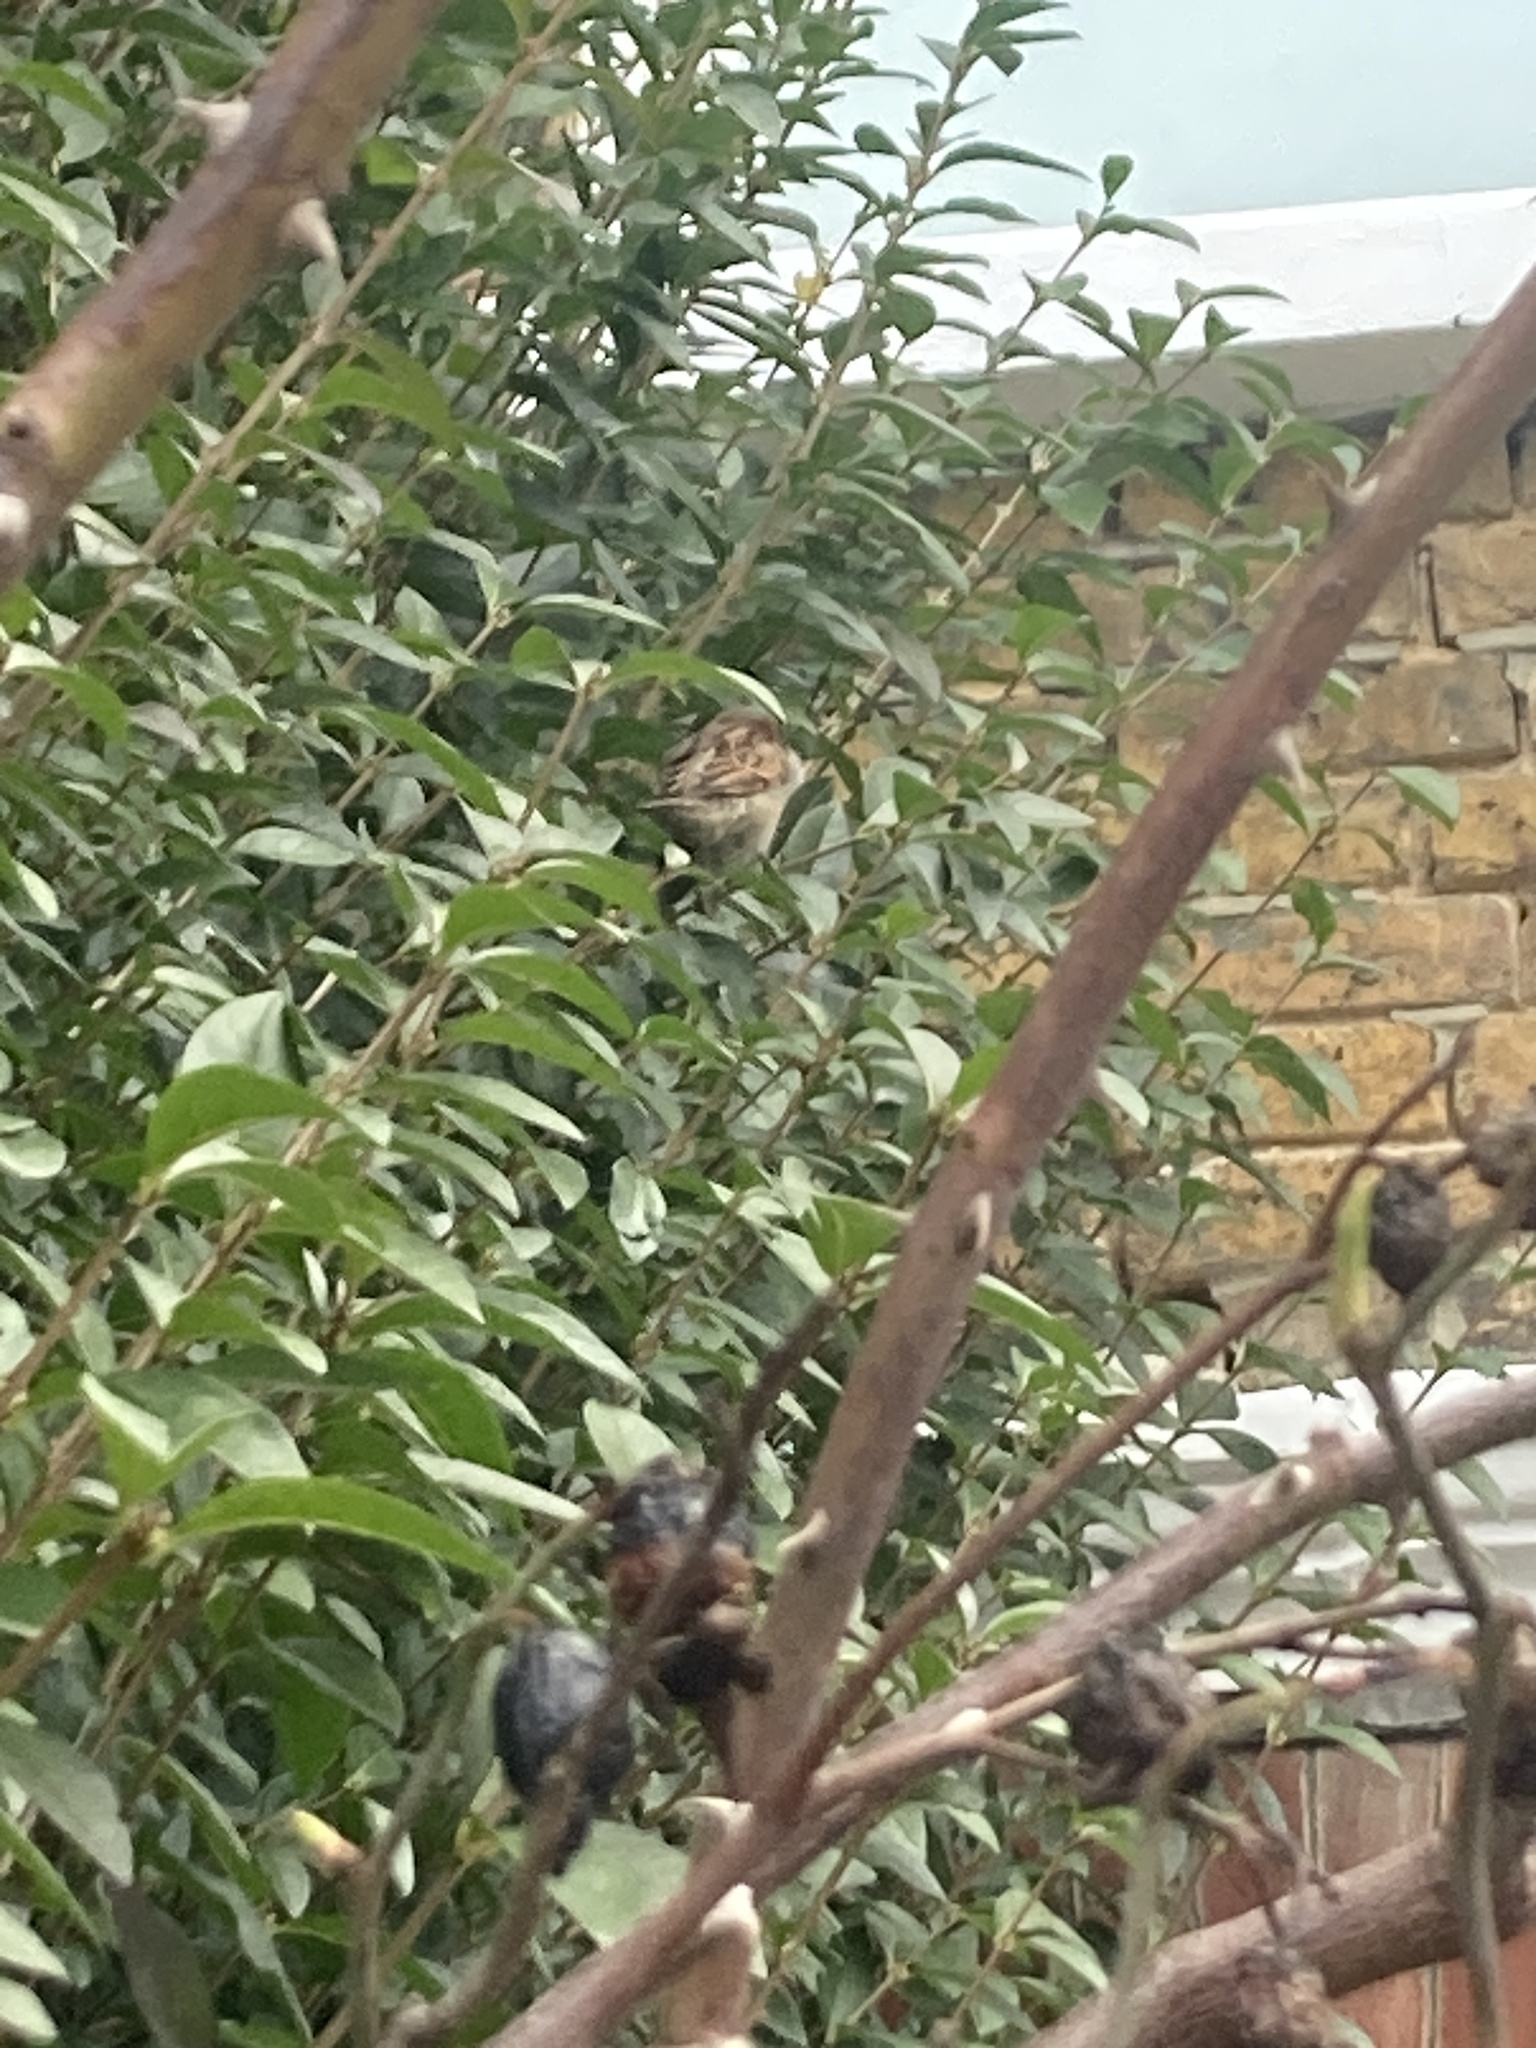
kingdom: Animalia
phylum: Chordata
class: Aves
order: Passeriformes
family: Passeridae
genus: Passer
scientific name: Passer domesticus
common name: House sparrow
